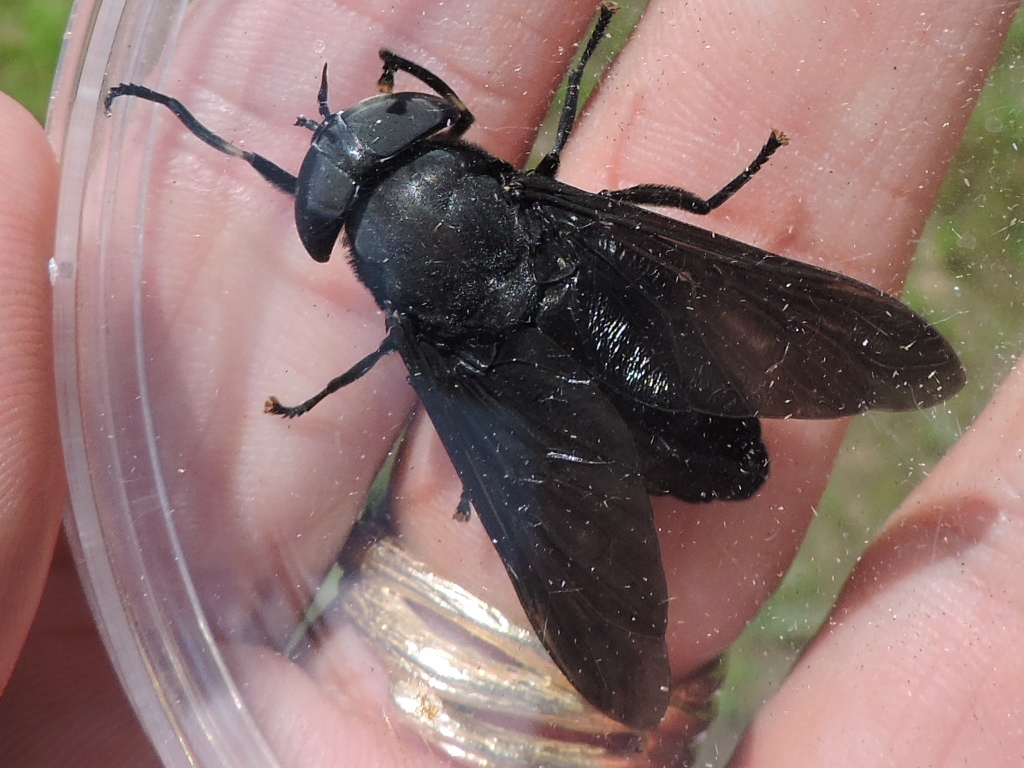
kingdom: Animalia
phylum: Arthropoda
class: Insecta
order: Diptera
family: Tabanidae
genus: Tabanus
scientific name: Tabanus atratus
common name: Black horse fly
